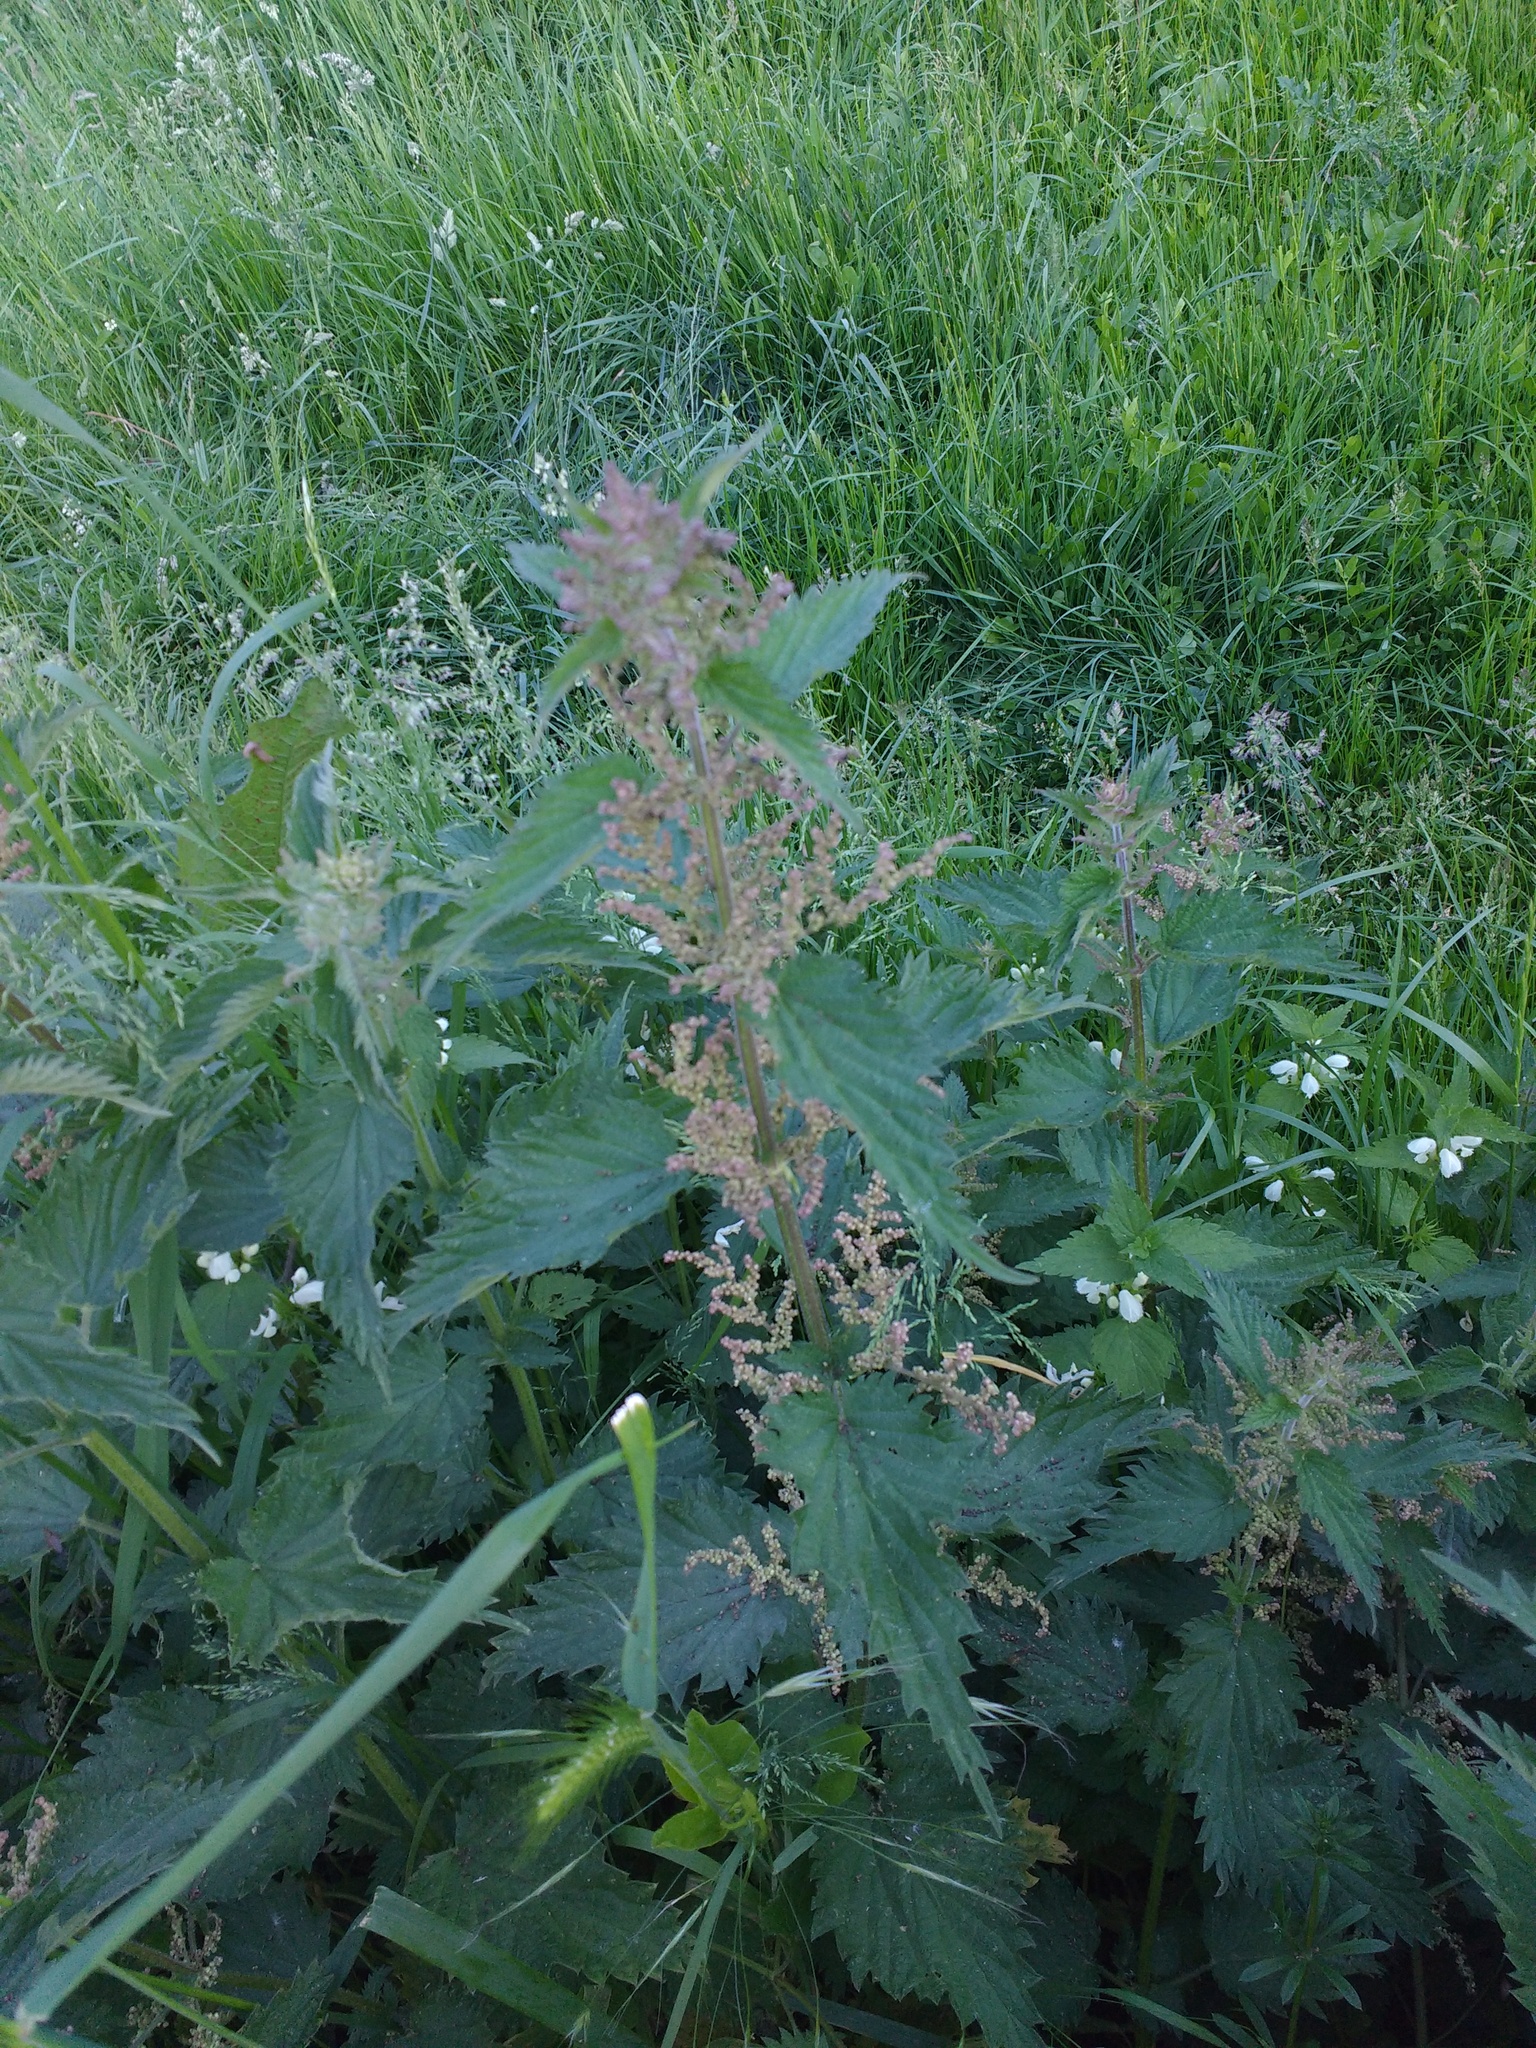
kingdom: Plantae
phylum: Tracheophyta
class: Magnoliopsida
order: Rosales
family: Urticaceae
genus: Urtica
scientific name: Urtica dioica
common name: Common nettle
